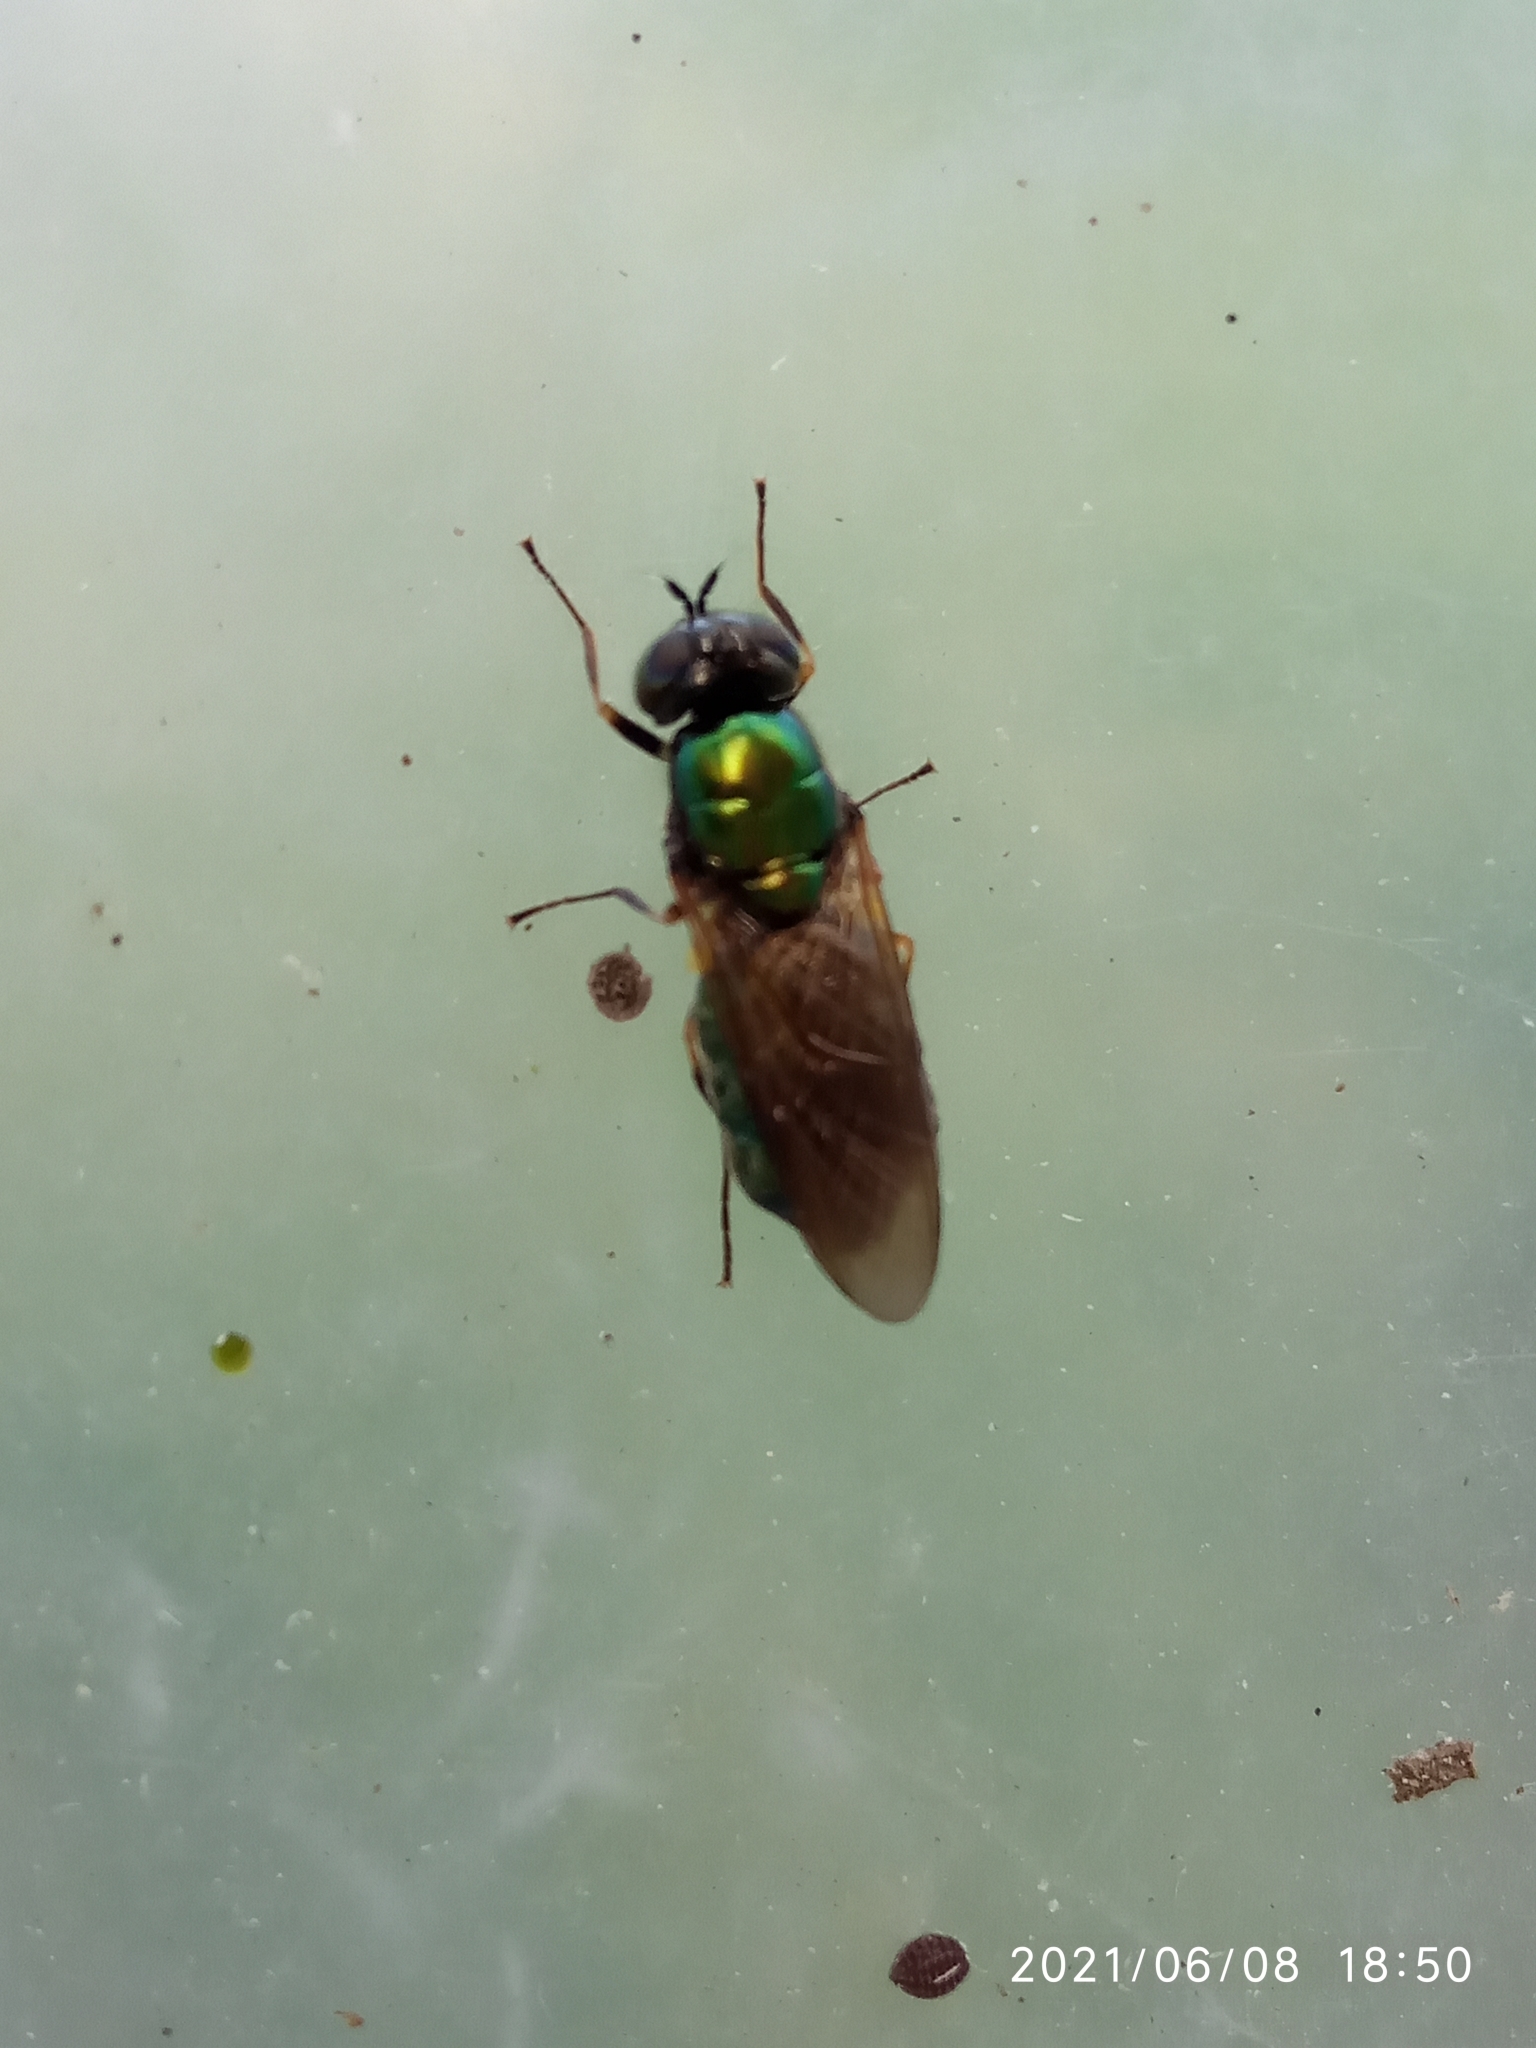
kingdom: Animalia
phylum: Arthropoda
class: Insecta
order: Diptera
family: Stratiomyidae
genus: Chloromyia
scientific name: Chloromyia formosa
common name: Soldier fly
